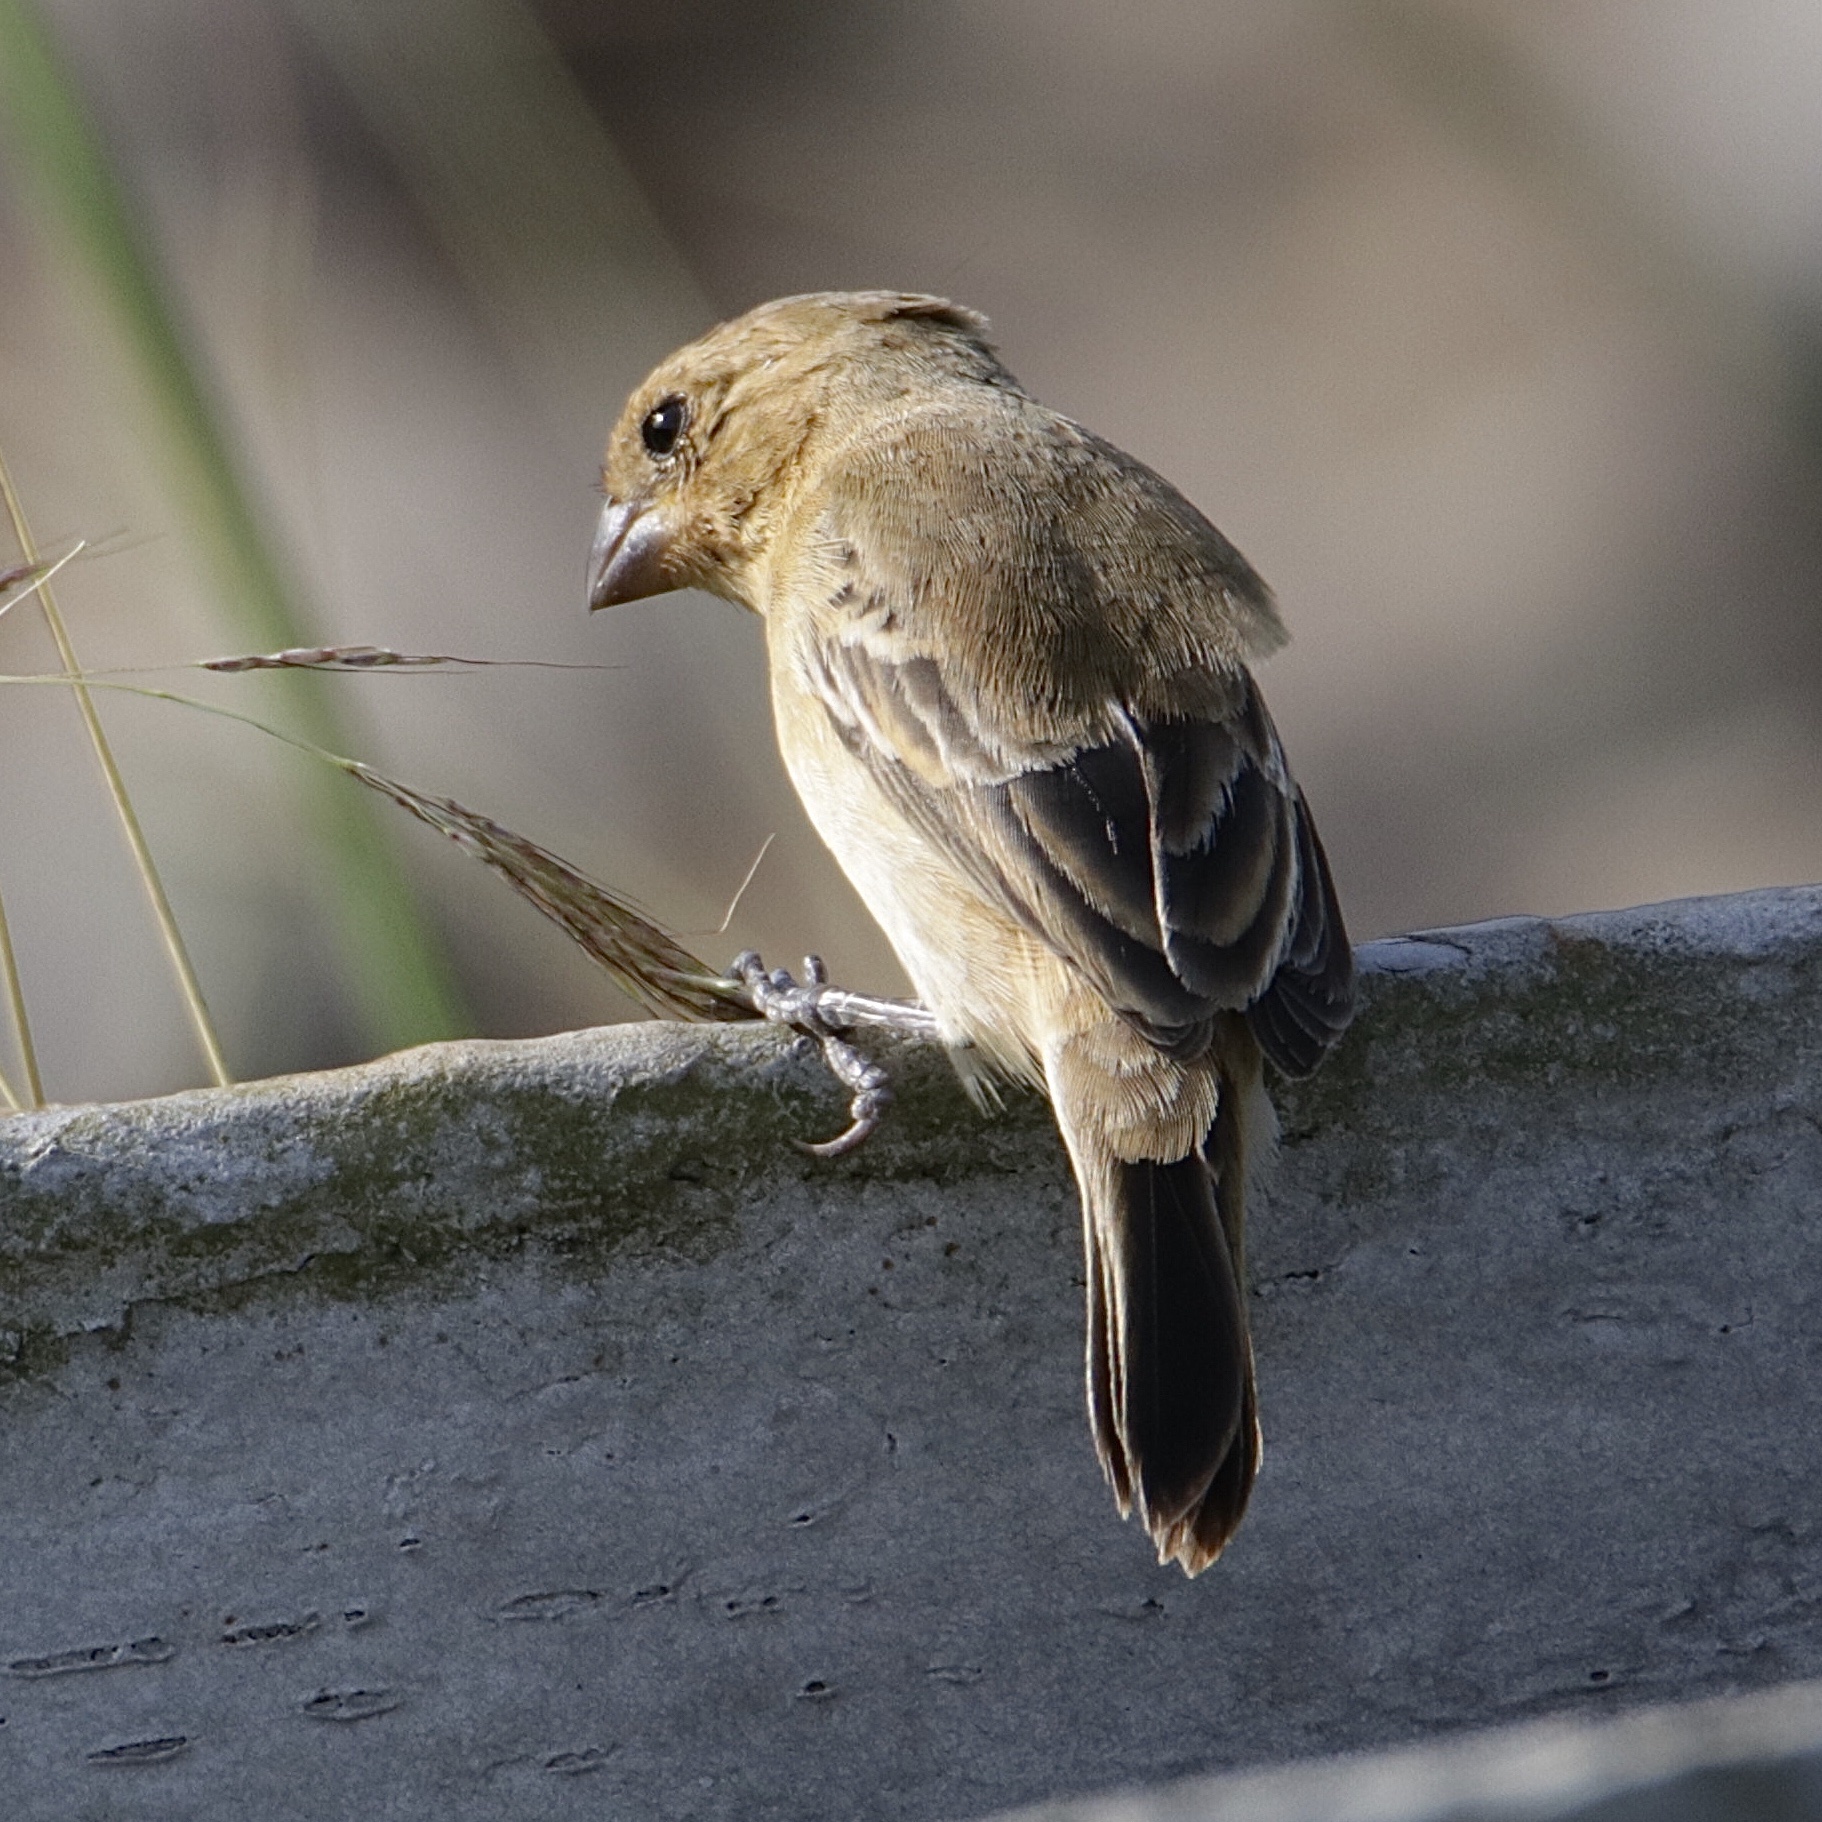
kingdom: Animalia
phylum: Chordata
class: Aves
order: Passeriformes
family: Thraupidae
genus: Sporophila
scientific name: Sporophila minuta
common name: Ruddy-breasted seedeater
